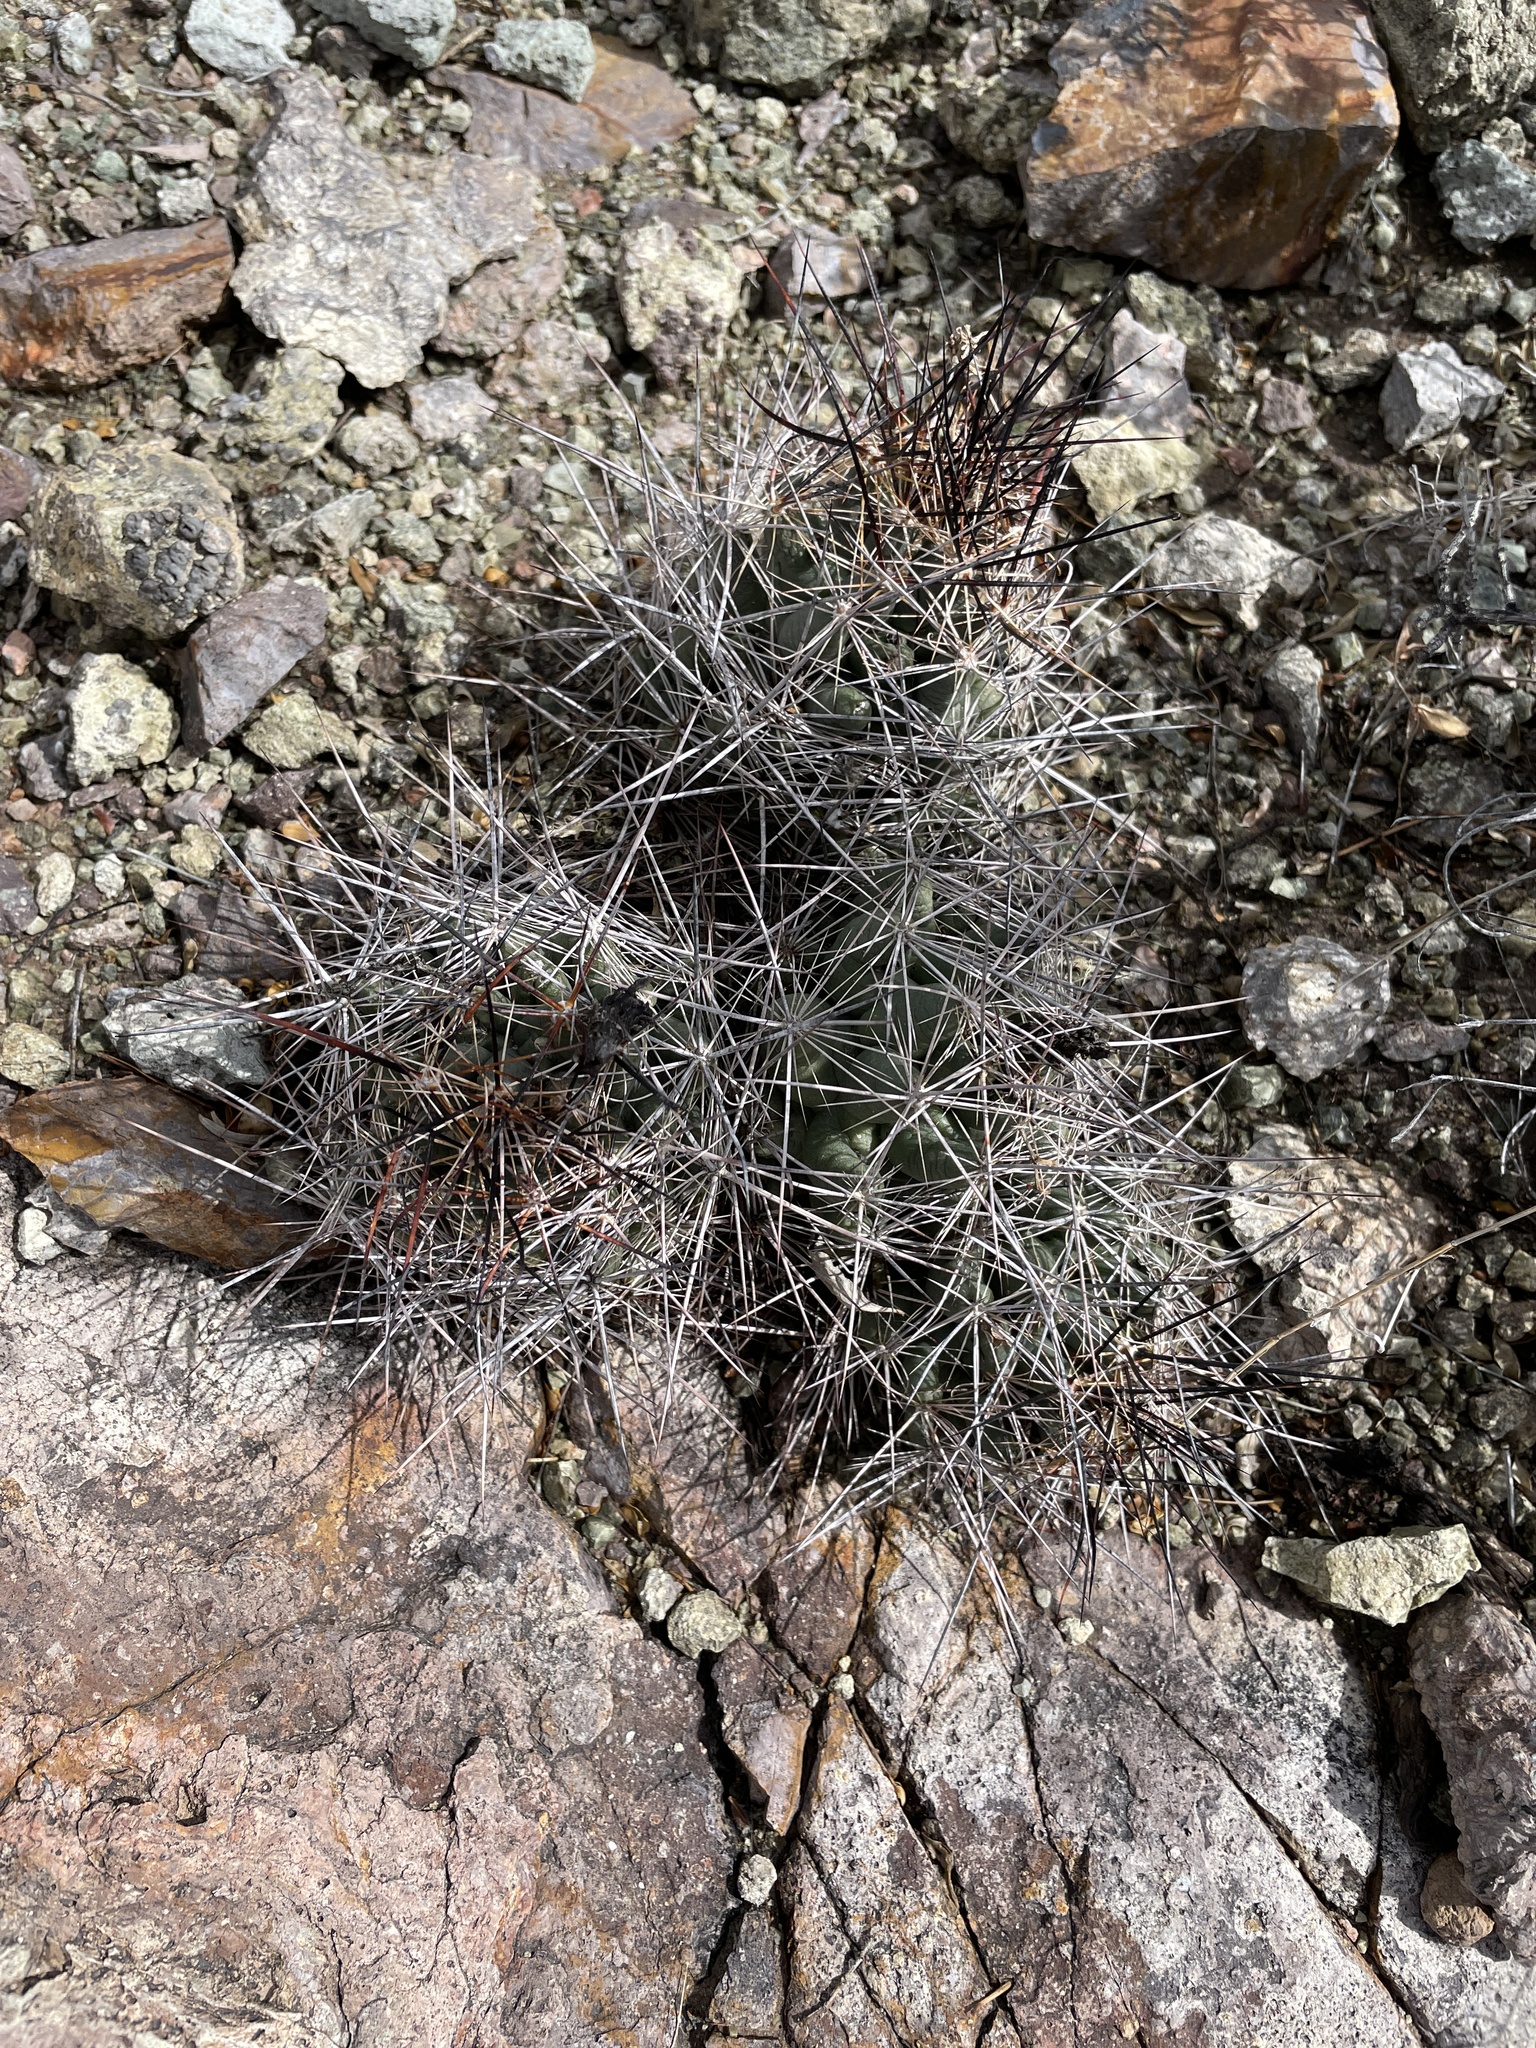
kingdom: Plantae
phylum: Tracheophyta
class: Magnoliopsida
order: Caryophyllales
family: Cactaceae
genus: Coryphantha
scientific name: Coryphantha macromeris
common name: Nipple beehive cactus
